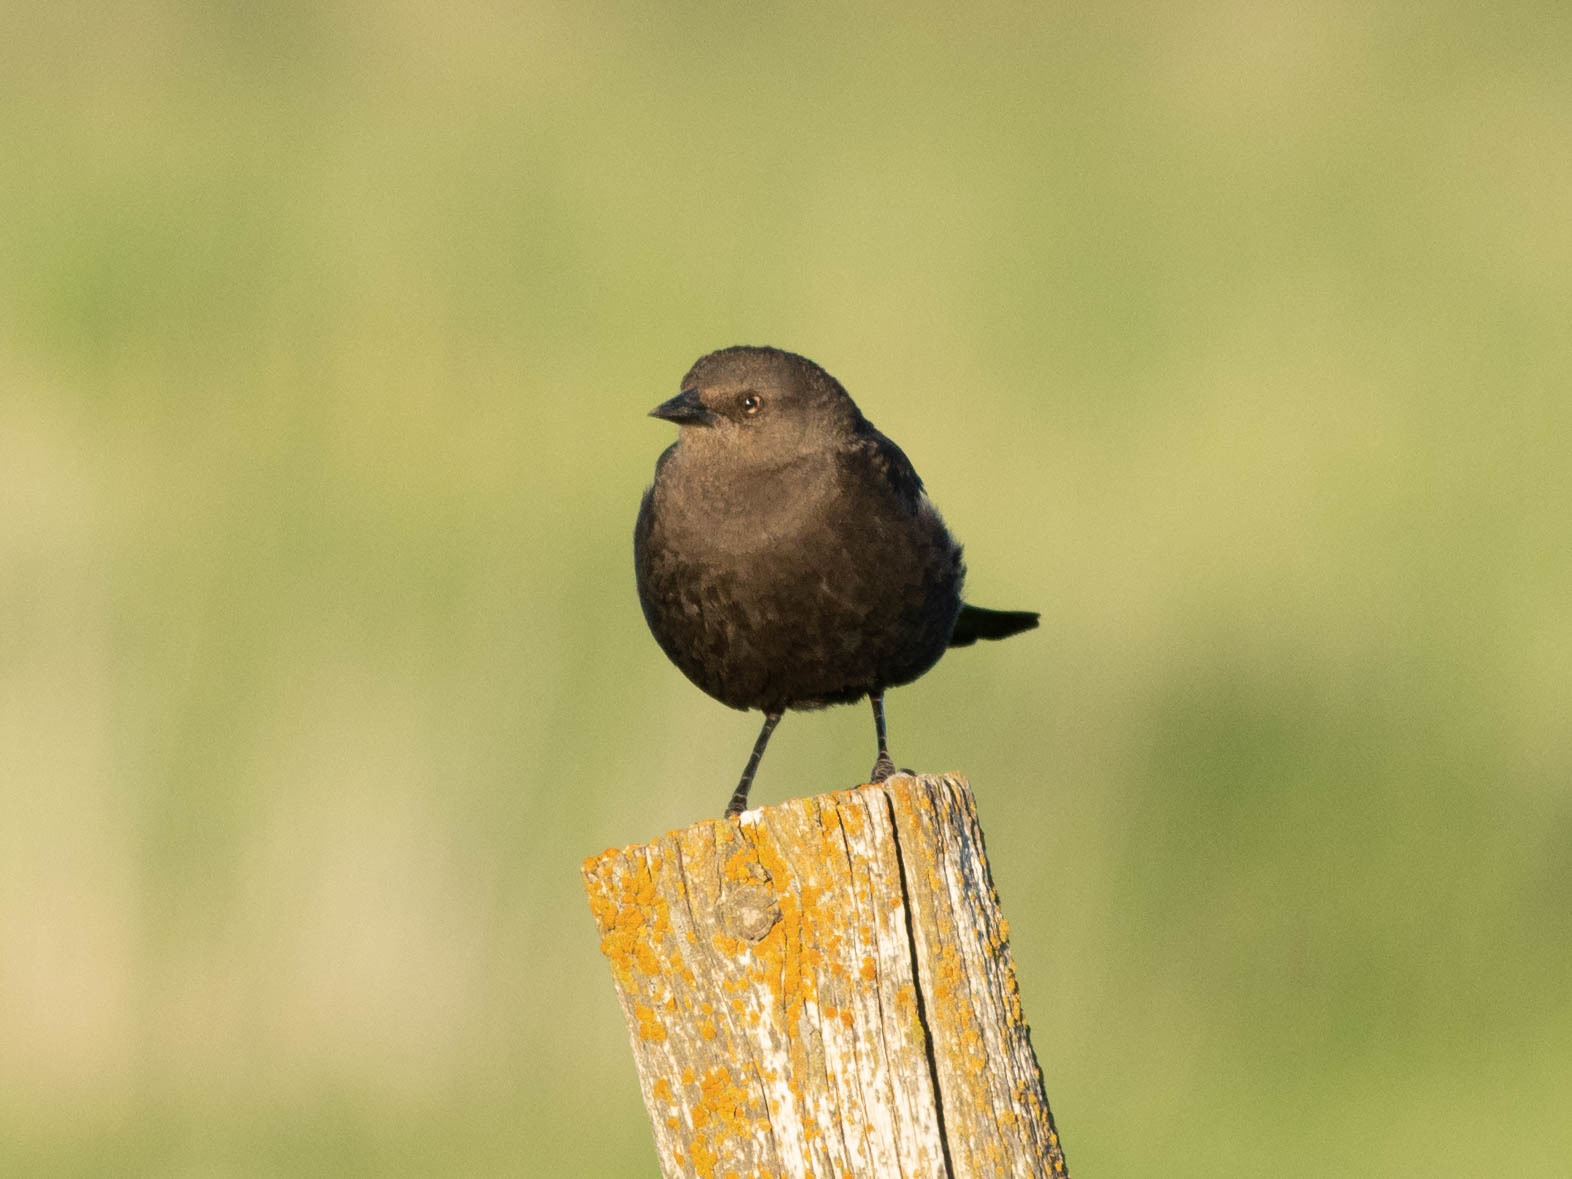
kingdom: Animalia
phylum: Chordata
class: Aves
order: Passeriformes
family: Icteridae
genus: Euphagus
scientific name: Euphagus cyanocephalus
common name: Brewer's blackbird
